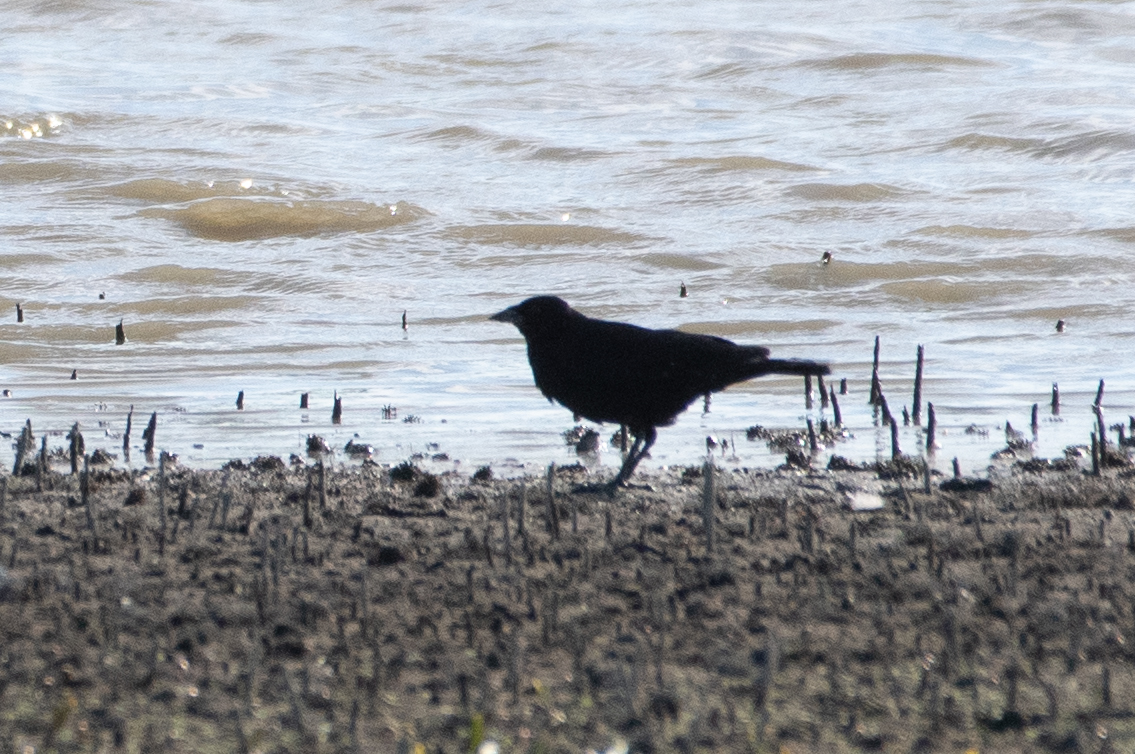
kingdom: Animalia
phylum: Chordata
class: Aves
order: Passeriformes
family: Corvidae
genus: Corvus
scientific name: Corvus brachyrhynchos
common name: American crow
